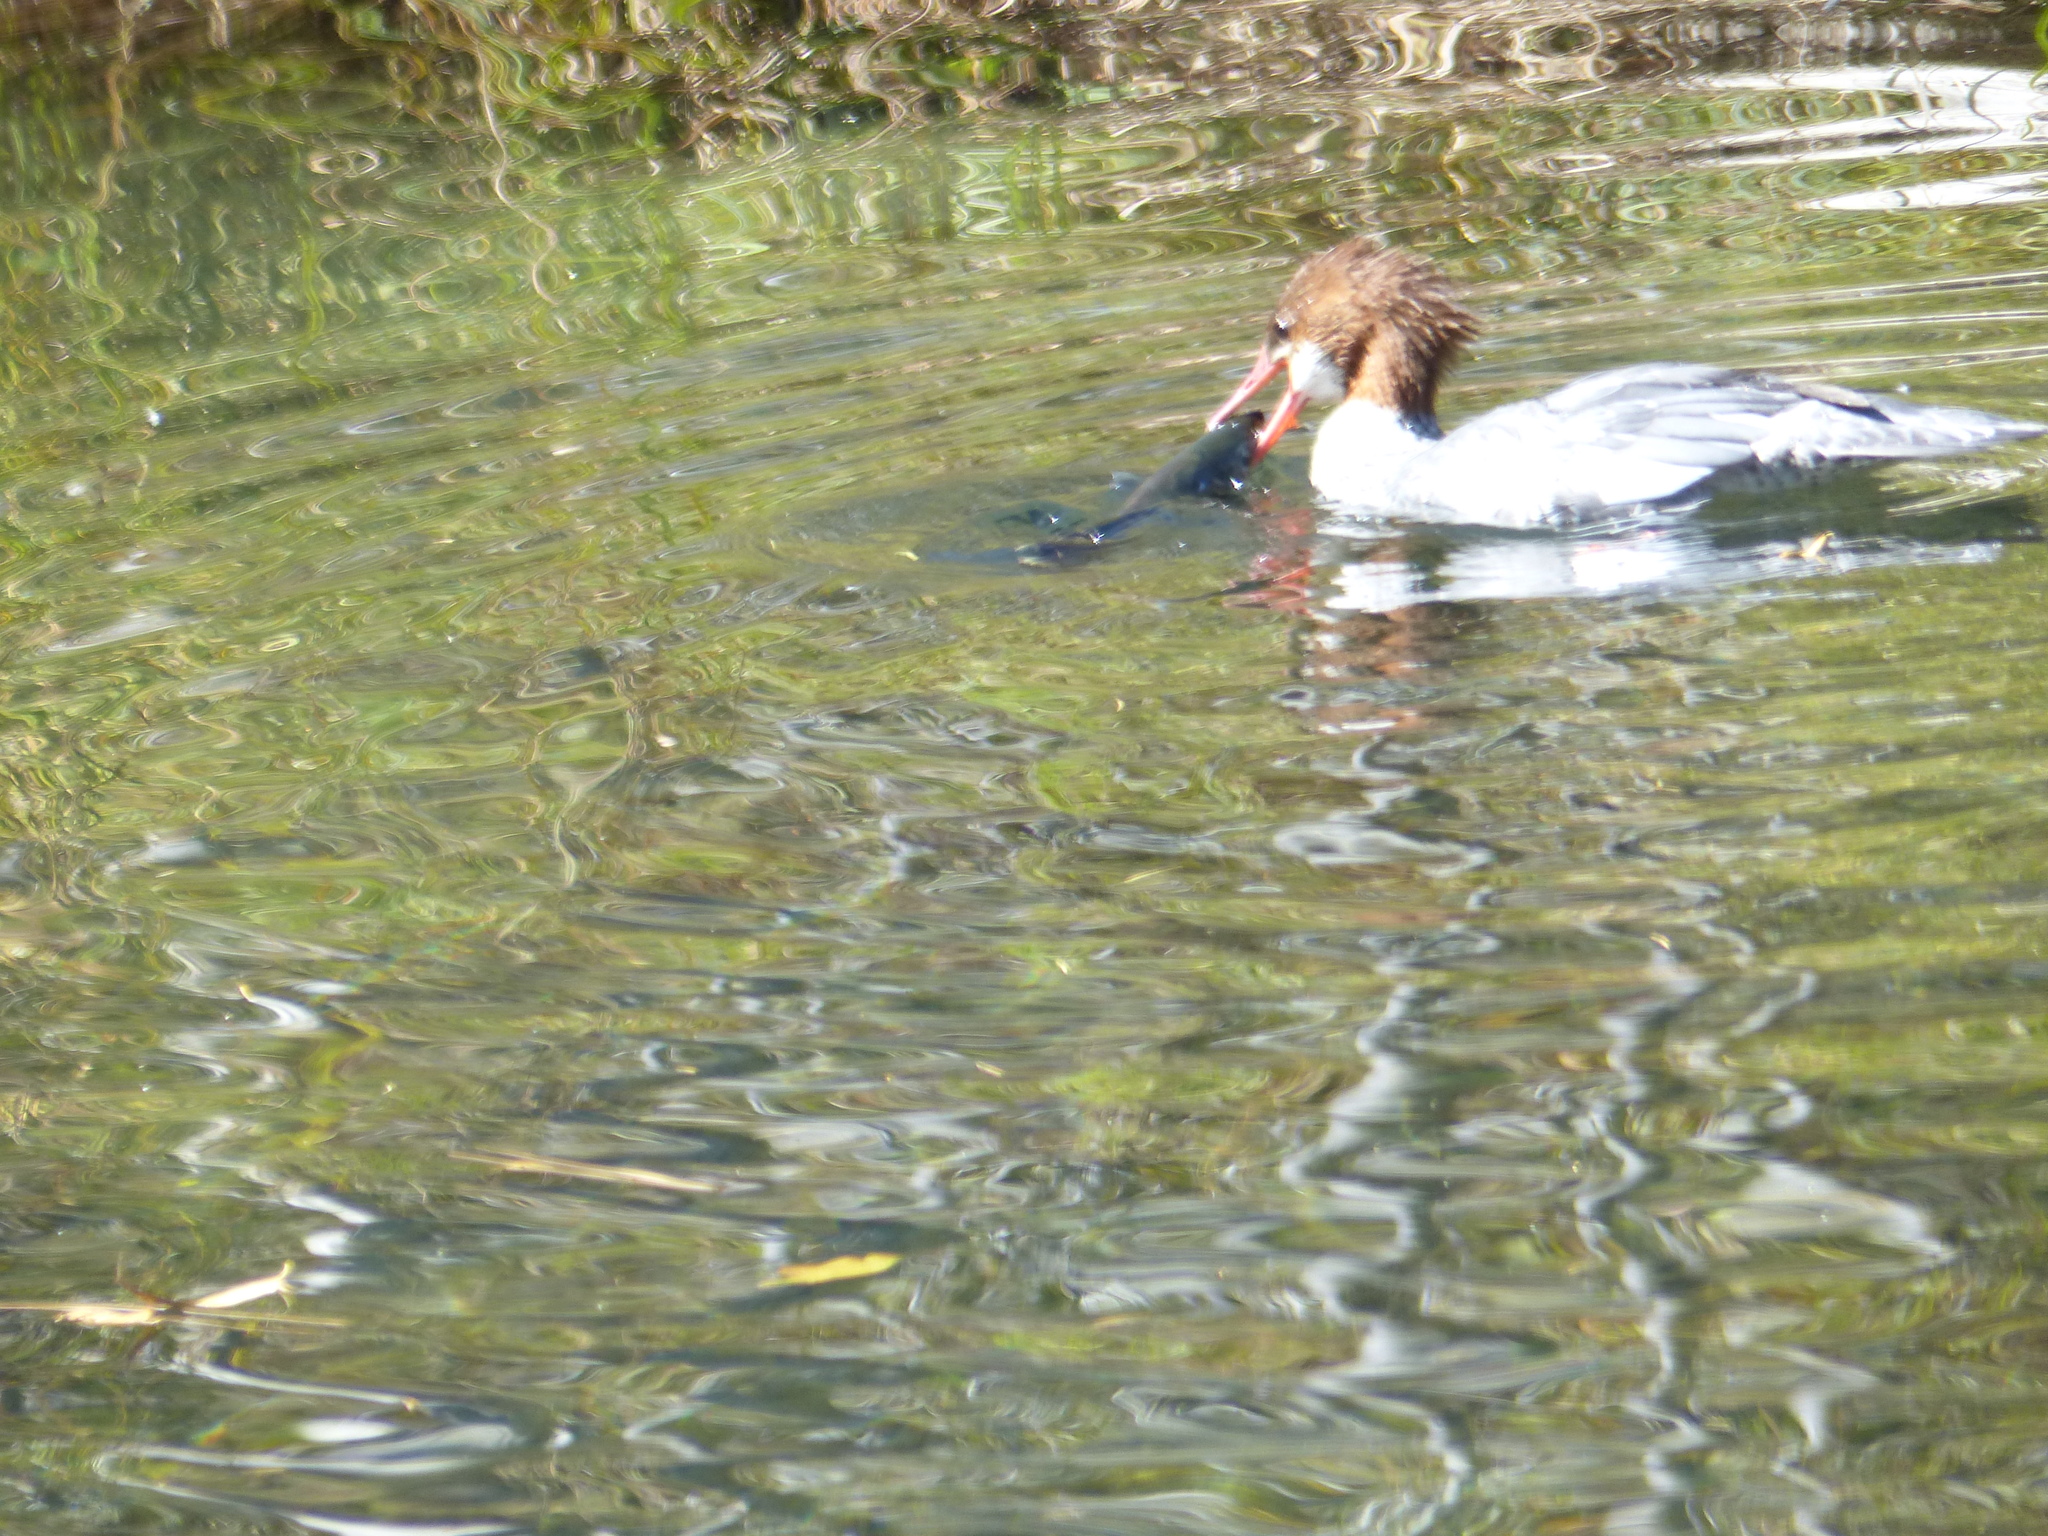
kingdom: Animalia
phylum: Chordata
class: Aves
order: Anseriformes
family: Anatidae
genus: Mergus
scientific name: Mergus merganser
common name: Common merganser
